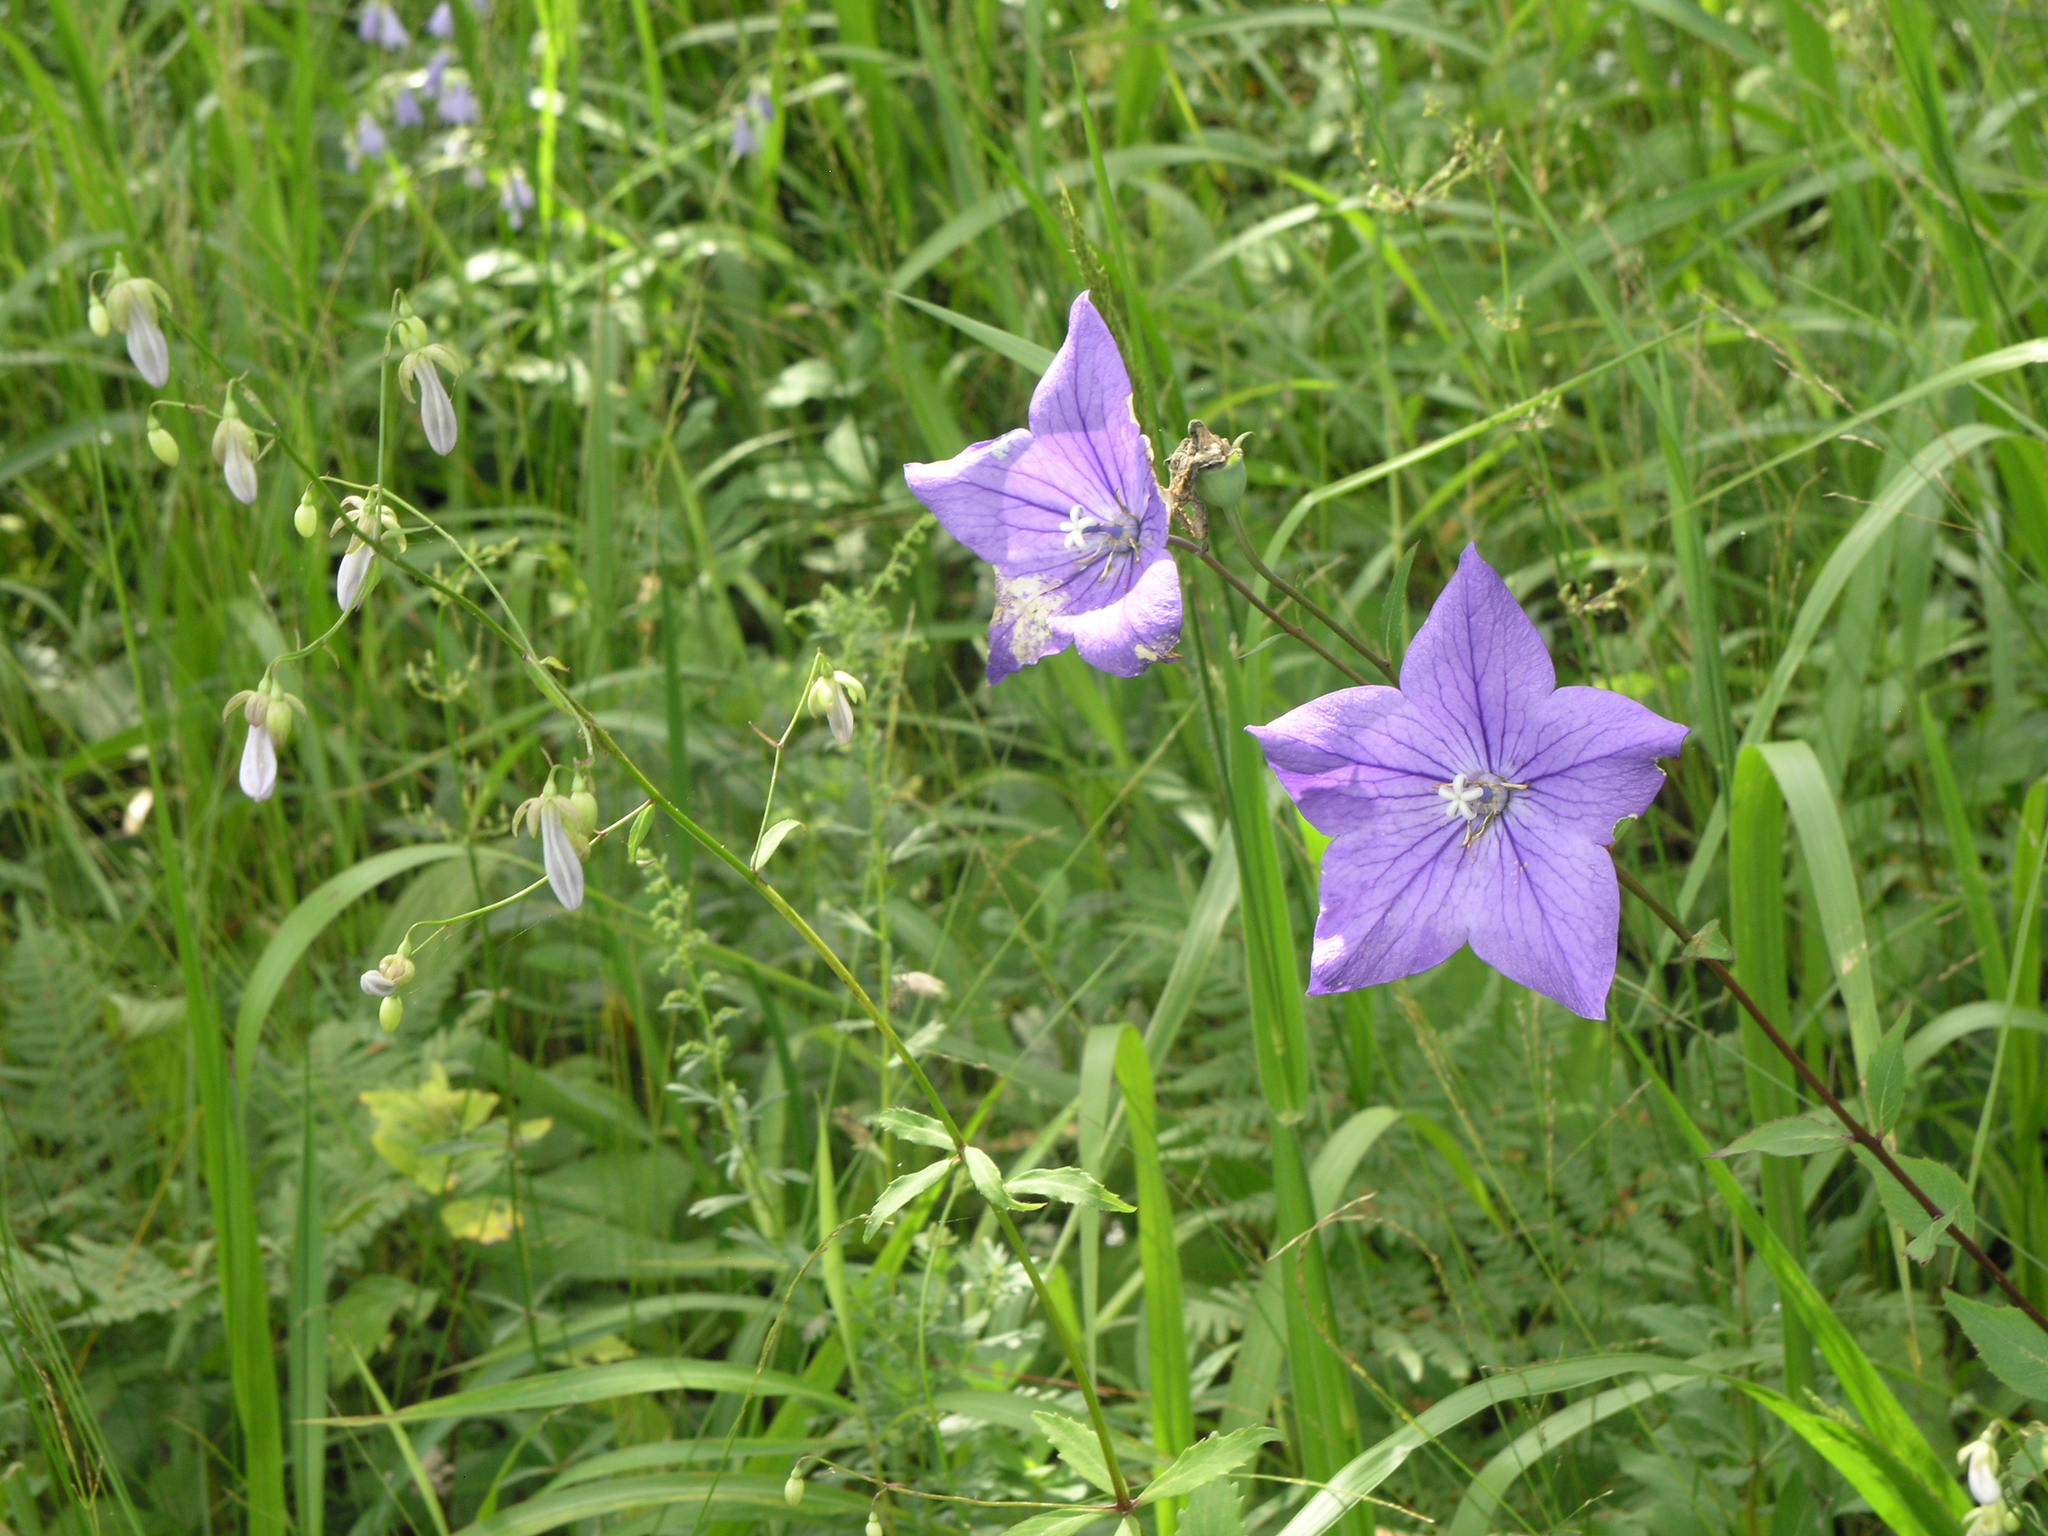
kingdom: Plantae
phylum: Tracheophyta
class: Magnoliopsida
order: Asterales
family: Campanulaceae
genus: Platycodon
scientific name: Platycodon grandiflorus
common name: Balloon-flower
